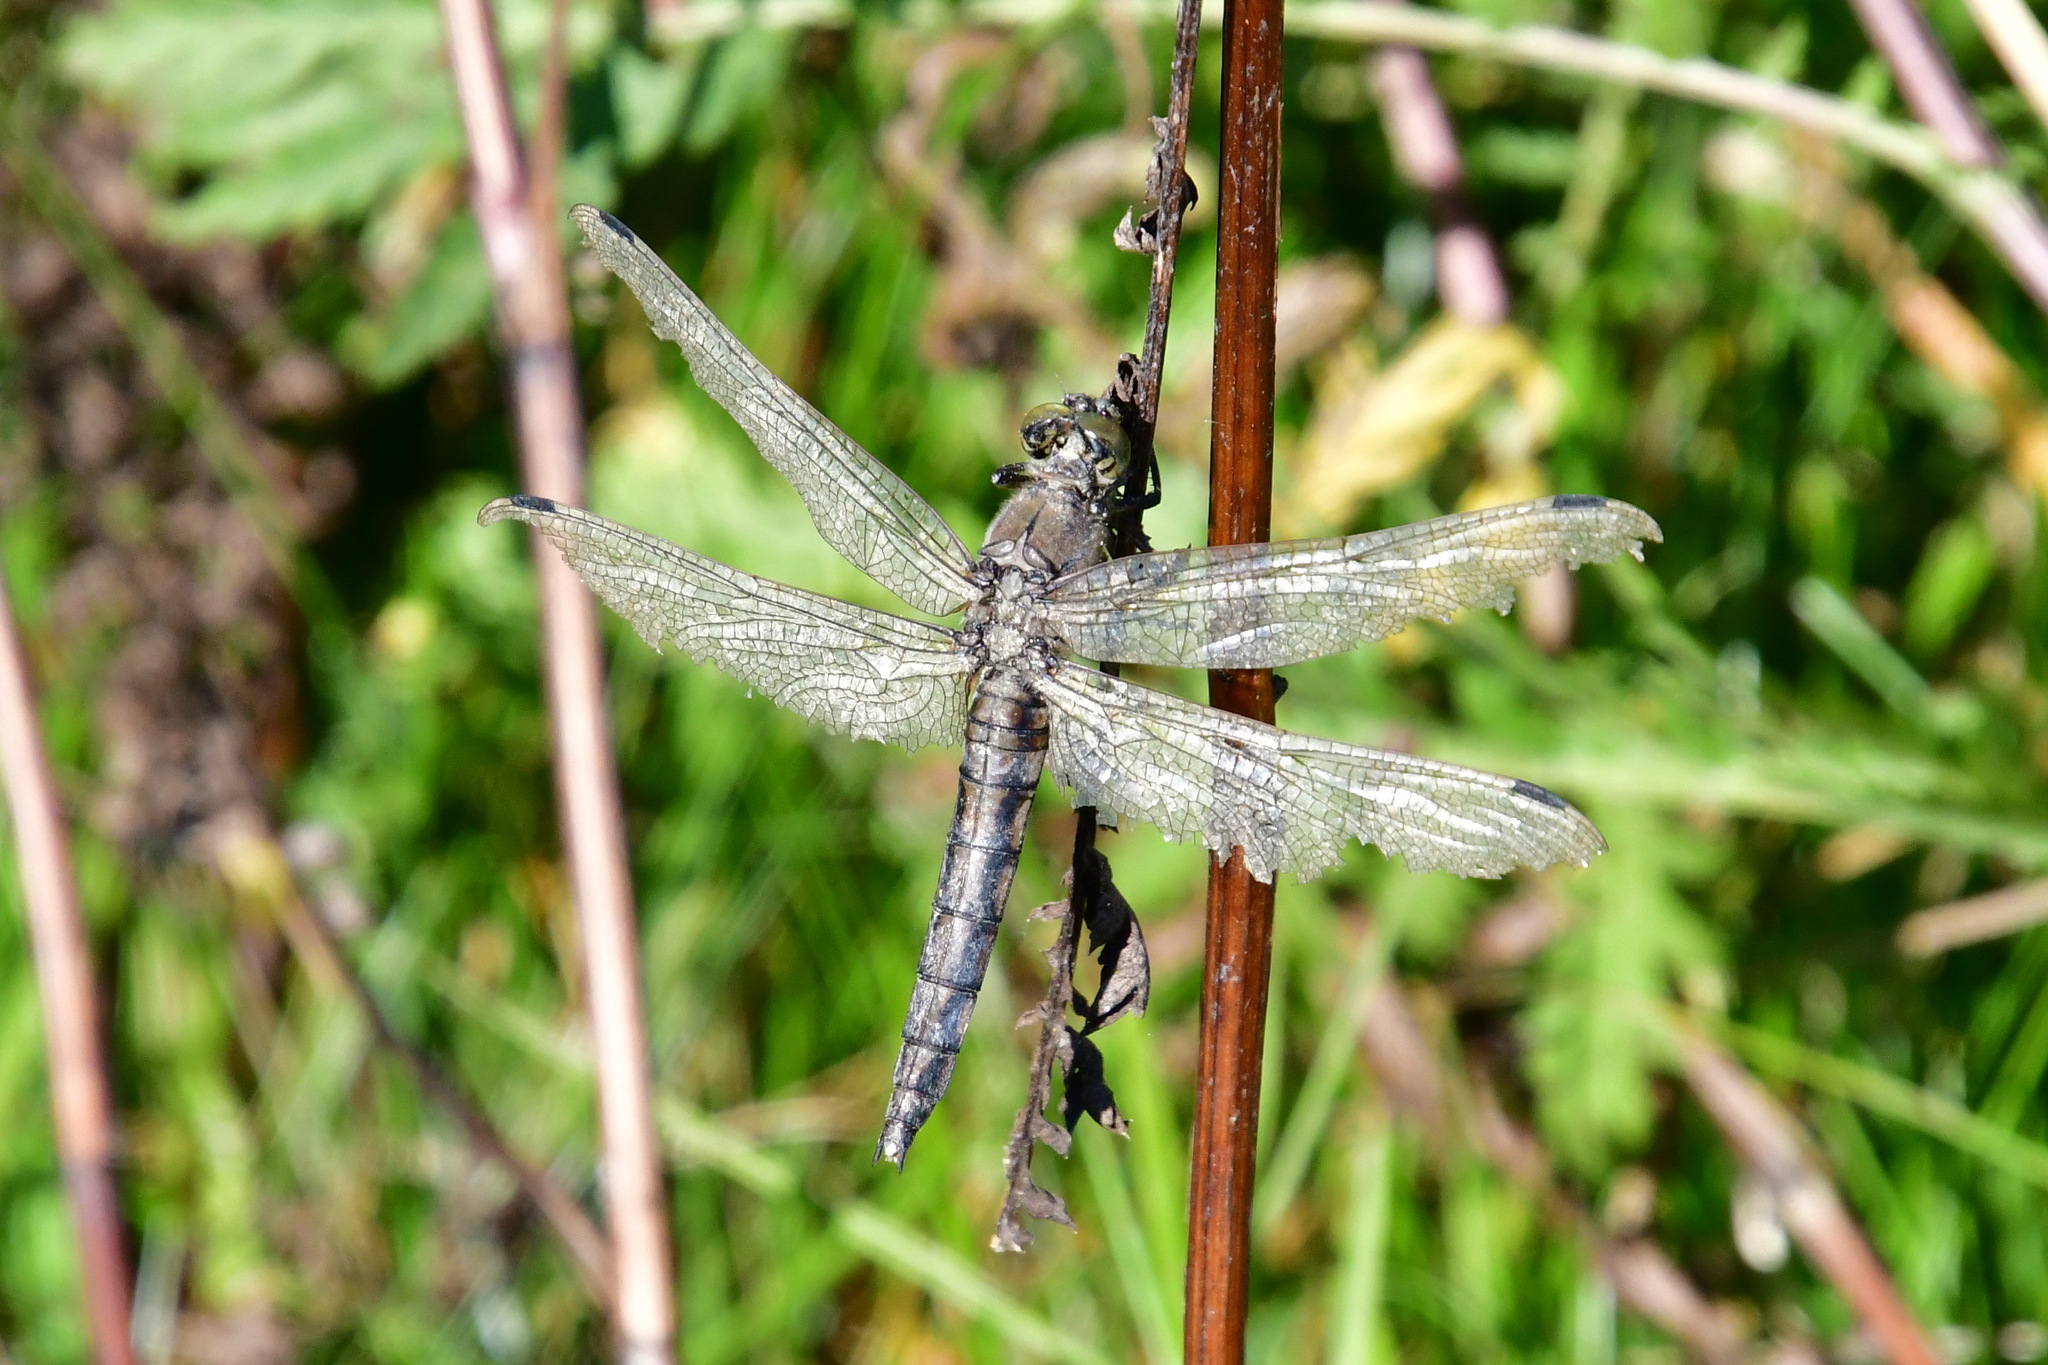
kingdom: Animalia
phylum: Arthropoda
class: Insecta
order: Odonata
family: Libellulidae
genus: Orthetrum
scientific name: Orthetrum cancellatum
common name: Black-tailed skimmer
